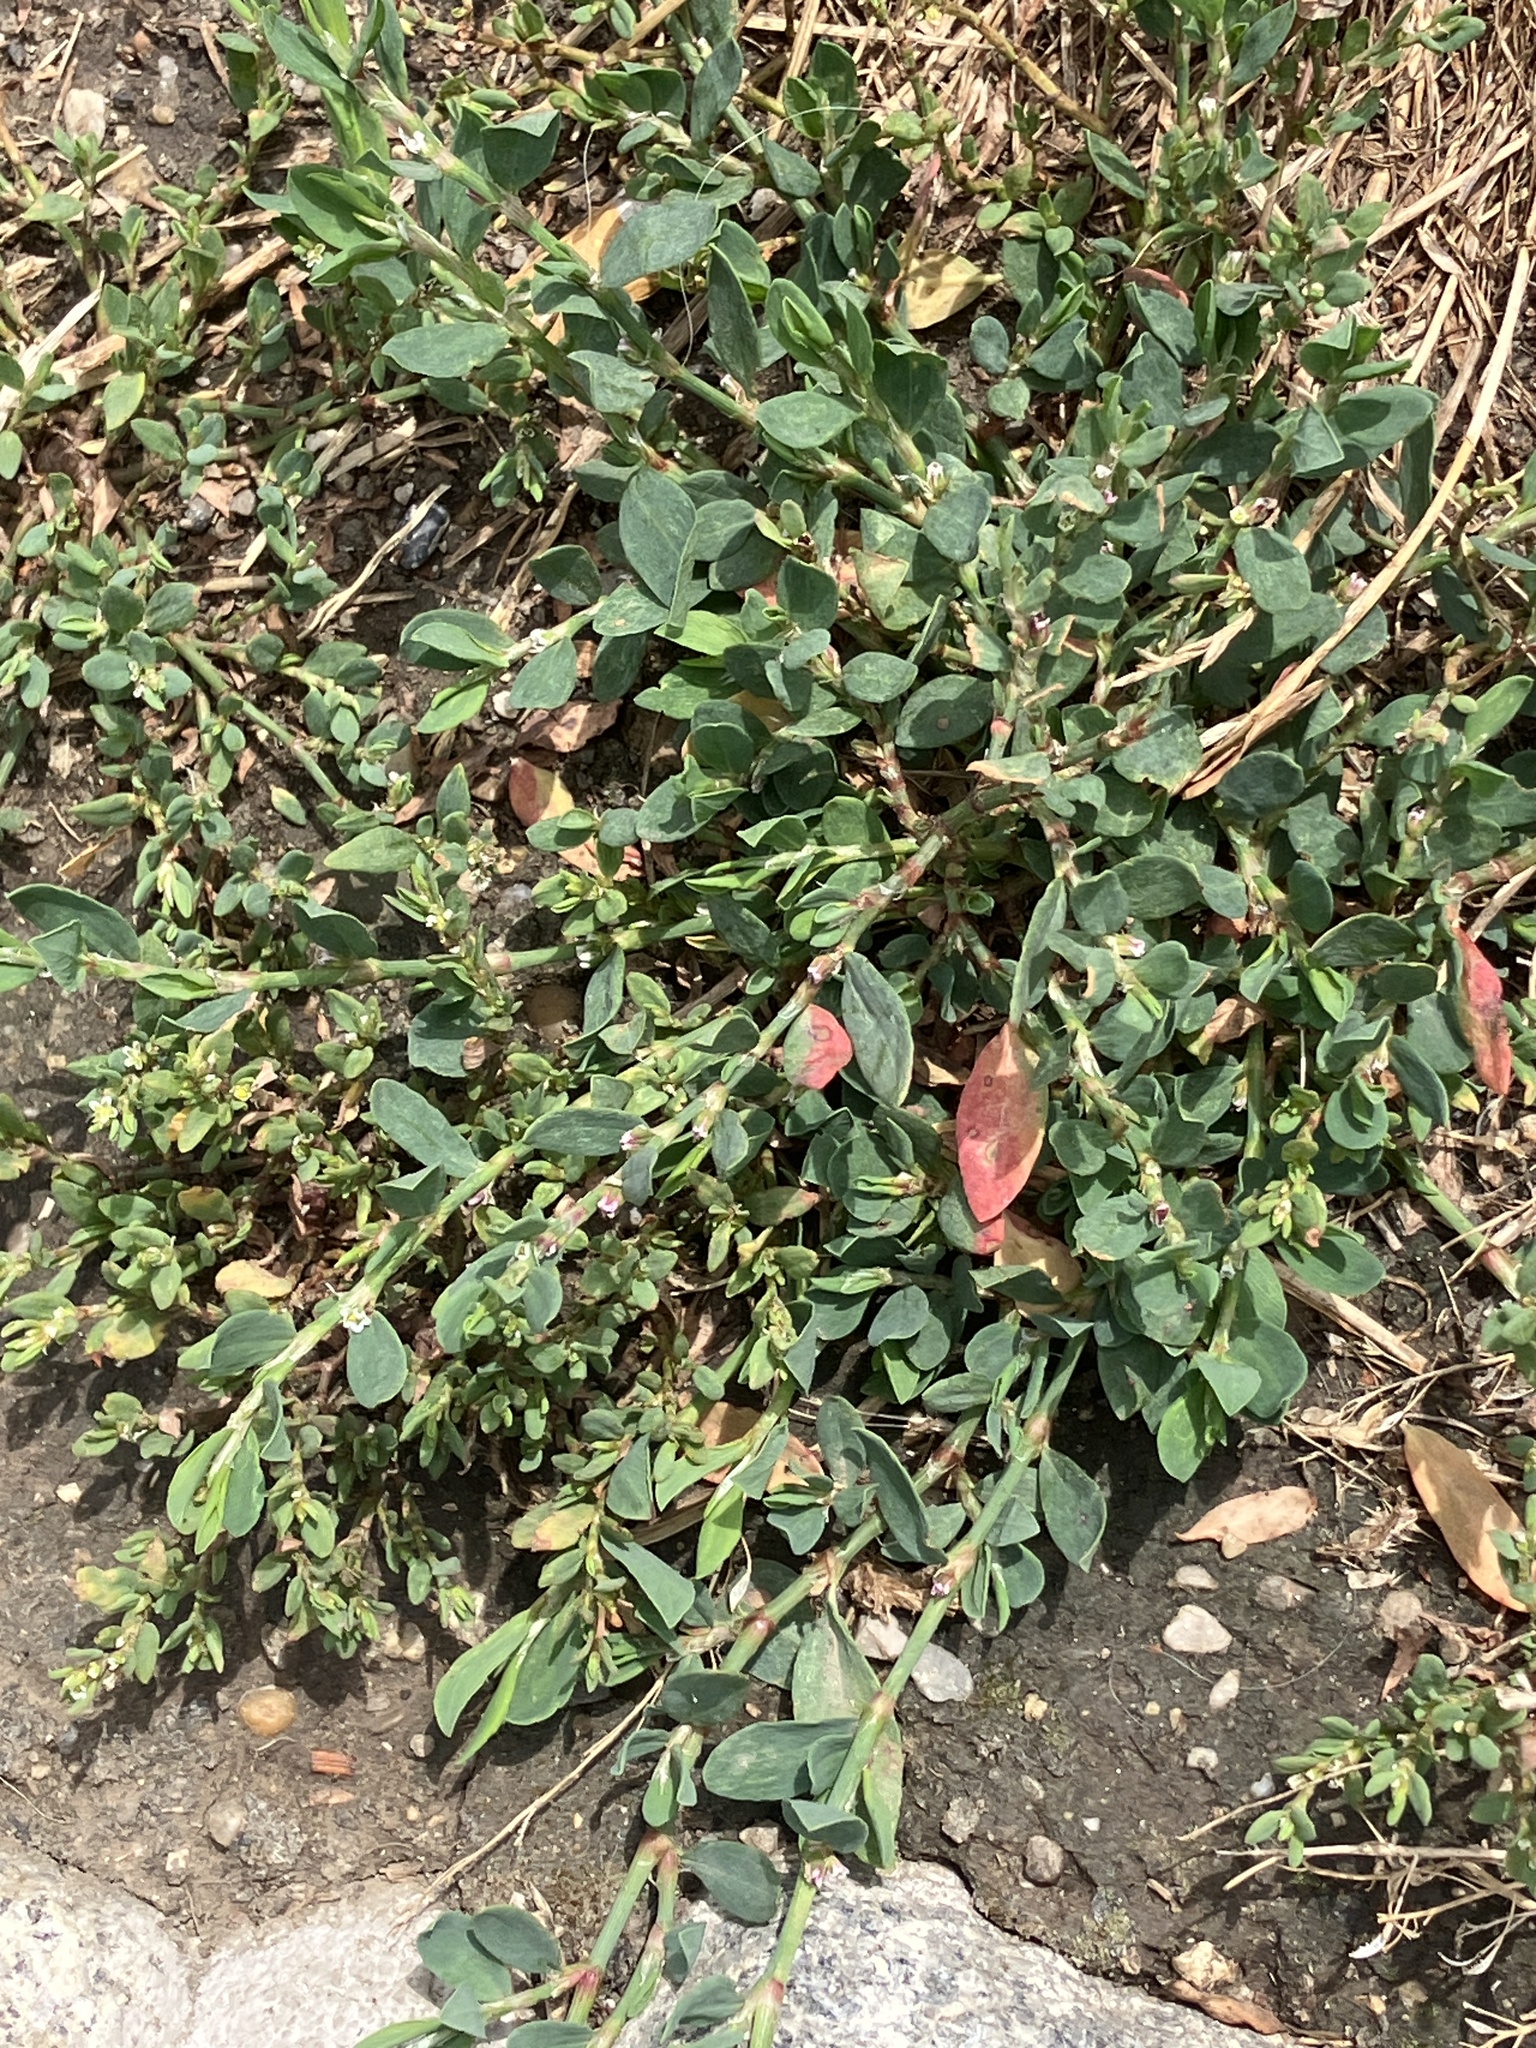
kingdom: Plantae
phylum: Tracheophyta
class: Magnoliopsida
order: Caryophyllales
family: Polygonaceae
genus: Polygonum
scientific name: Polygonum aviculare
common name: Prostrate knotweed
